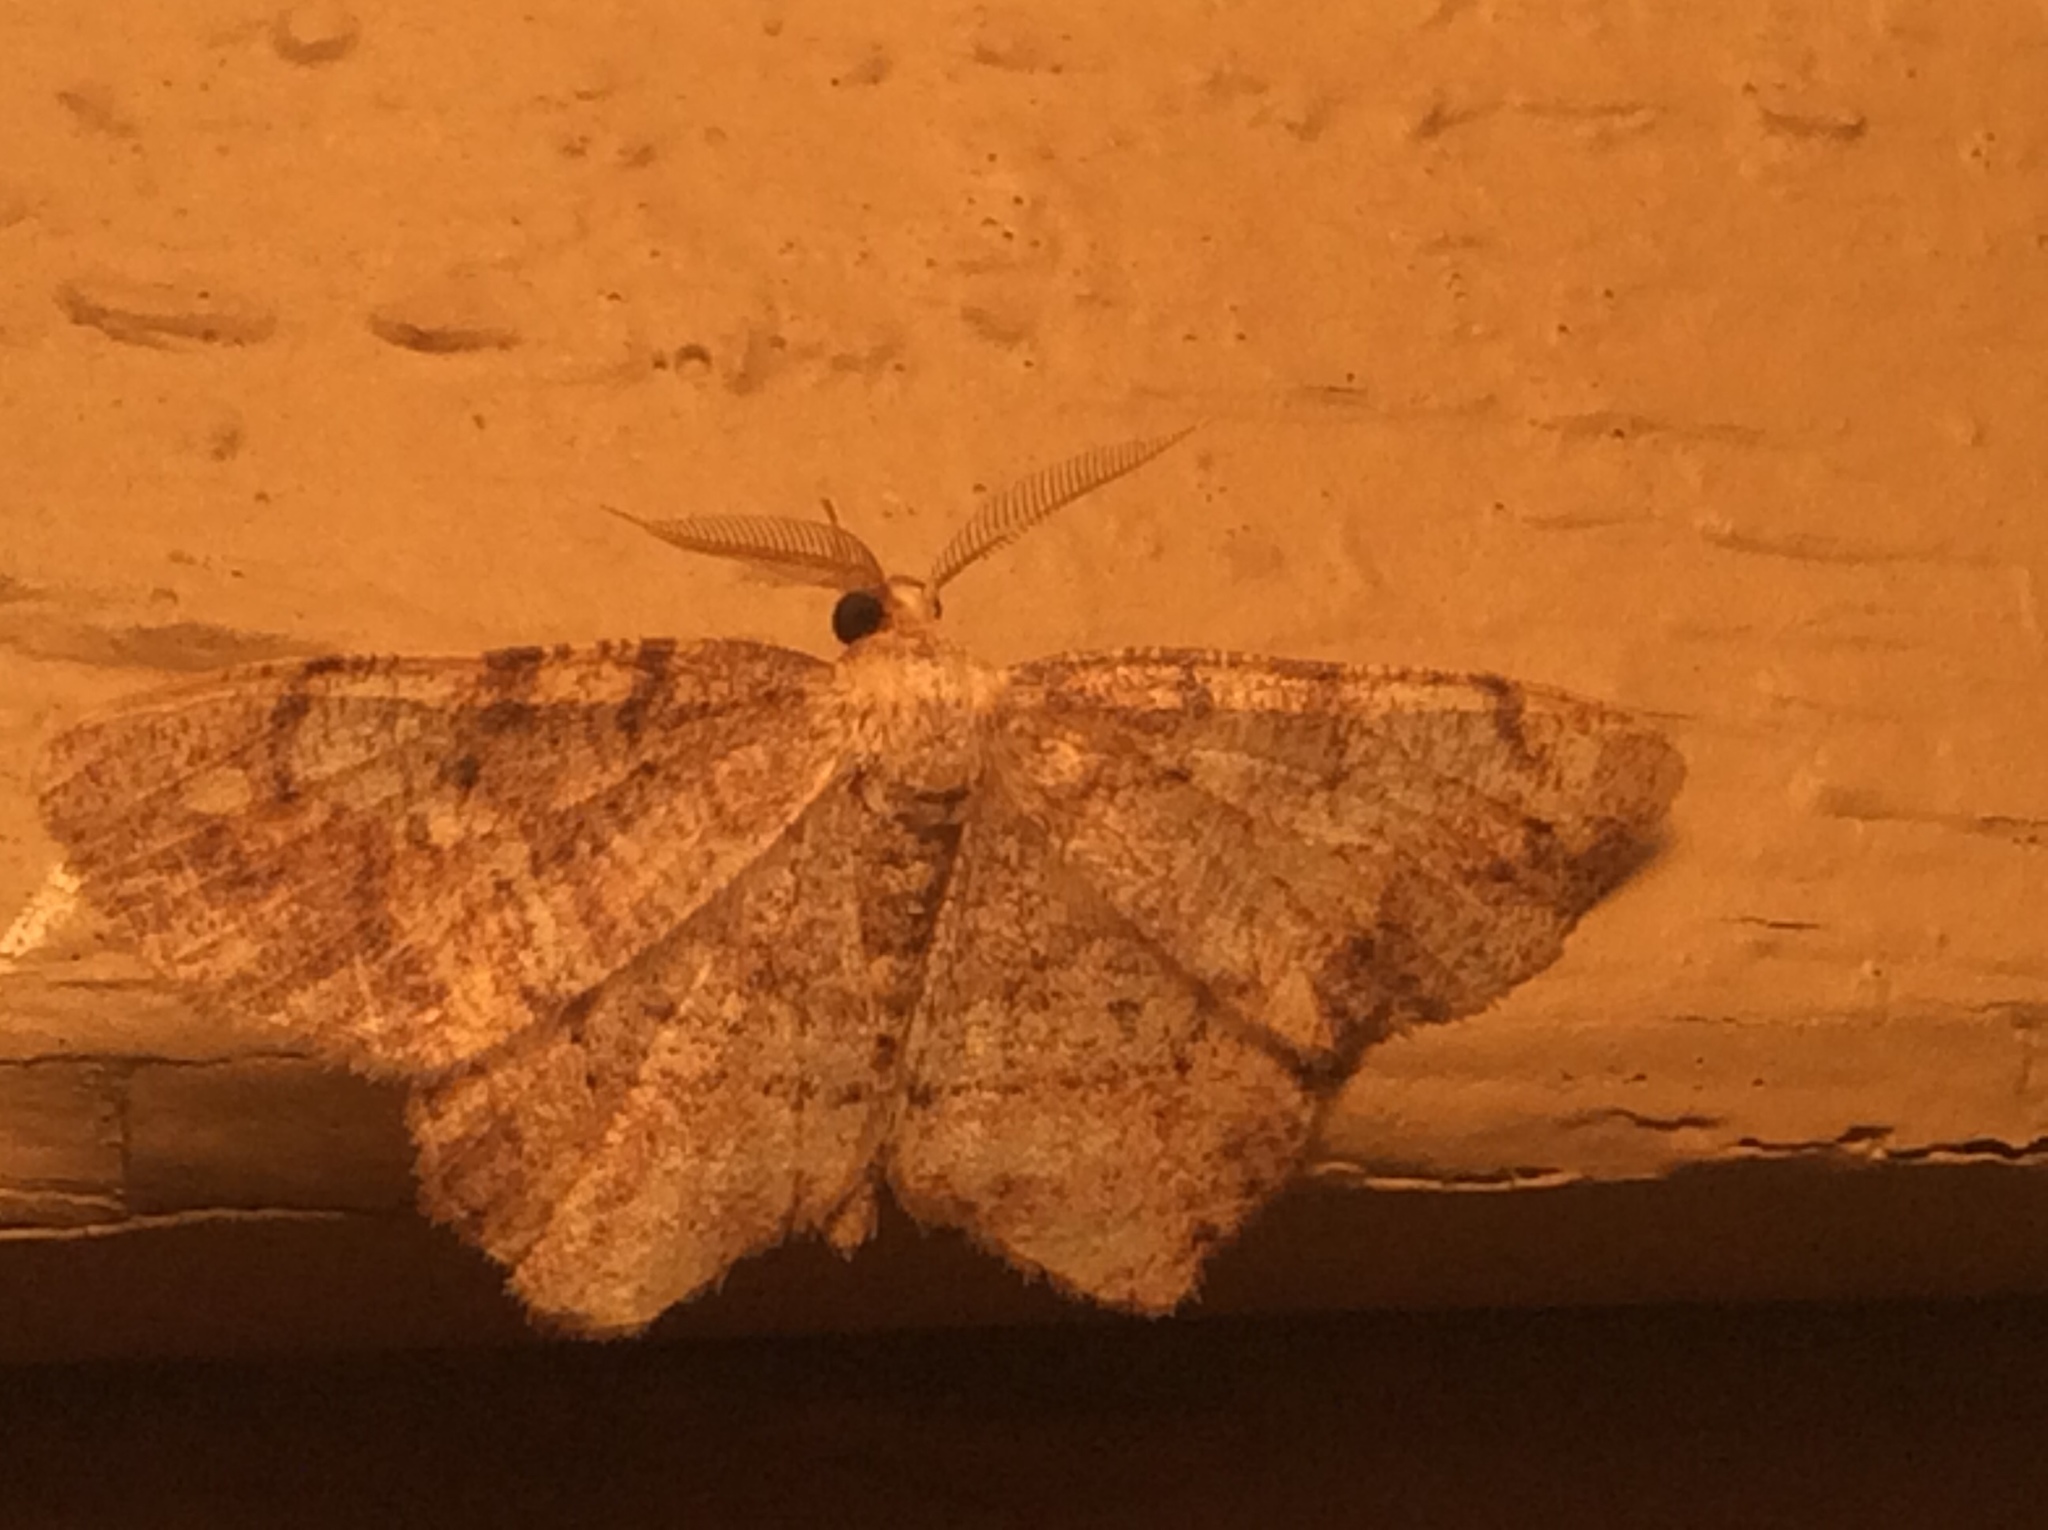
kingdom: Animalia
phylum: Arthropoda
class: Insecta
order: Lepidoptera
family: Geometridae
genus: Melanolophia
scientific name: Melanolophia canadaria
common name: Canadian melanolophia
